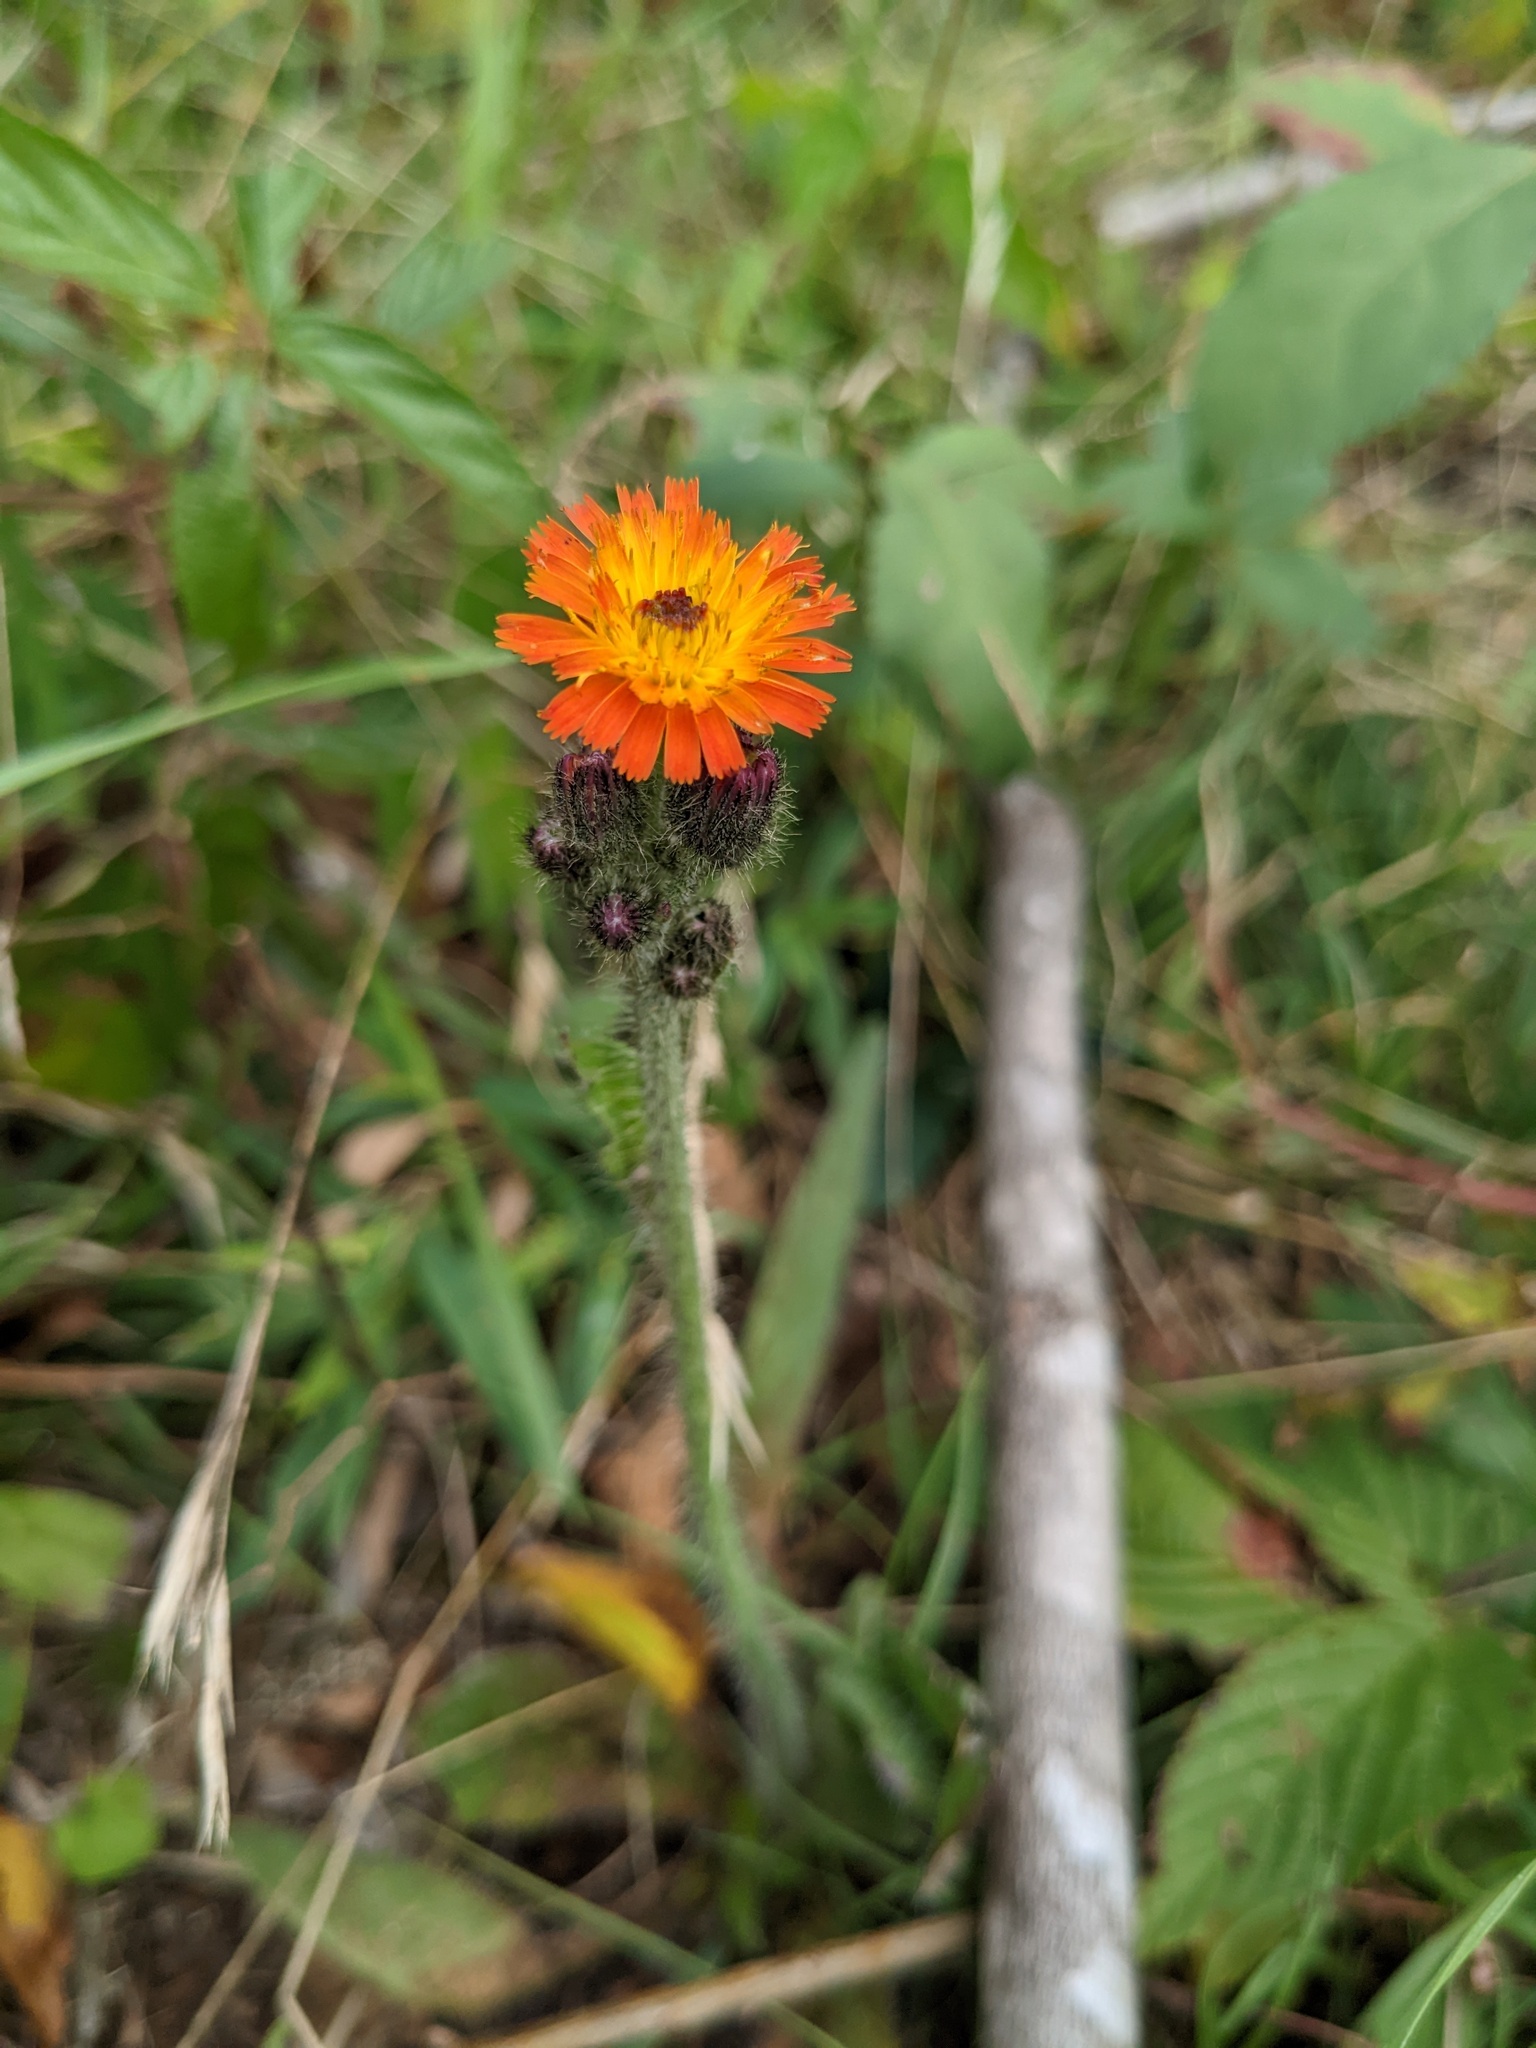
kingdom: Plantae
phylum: Tracheophyta
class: Magnoliopsida
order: Asterales
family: Asteraceae
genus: Pilosella
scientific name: Pilosella aurantiaca
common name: Fox-and-cubs
